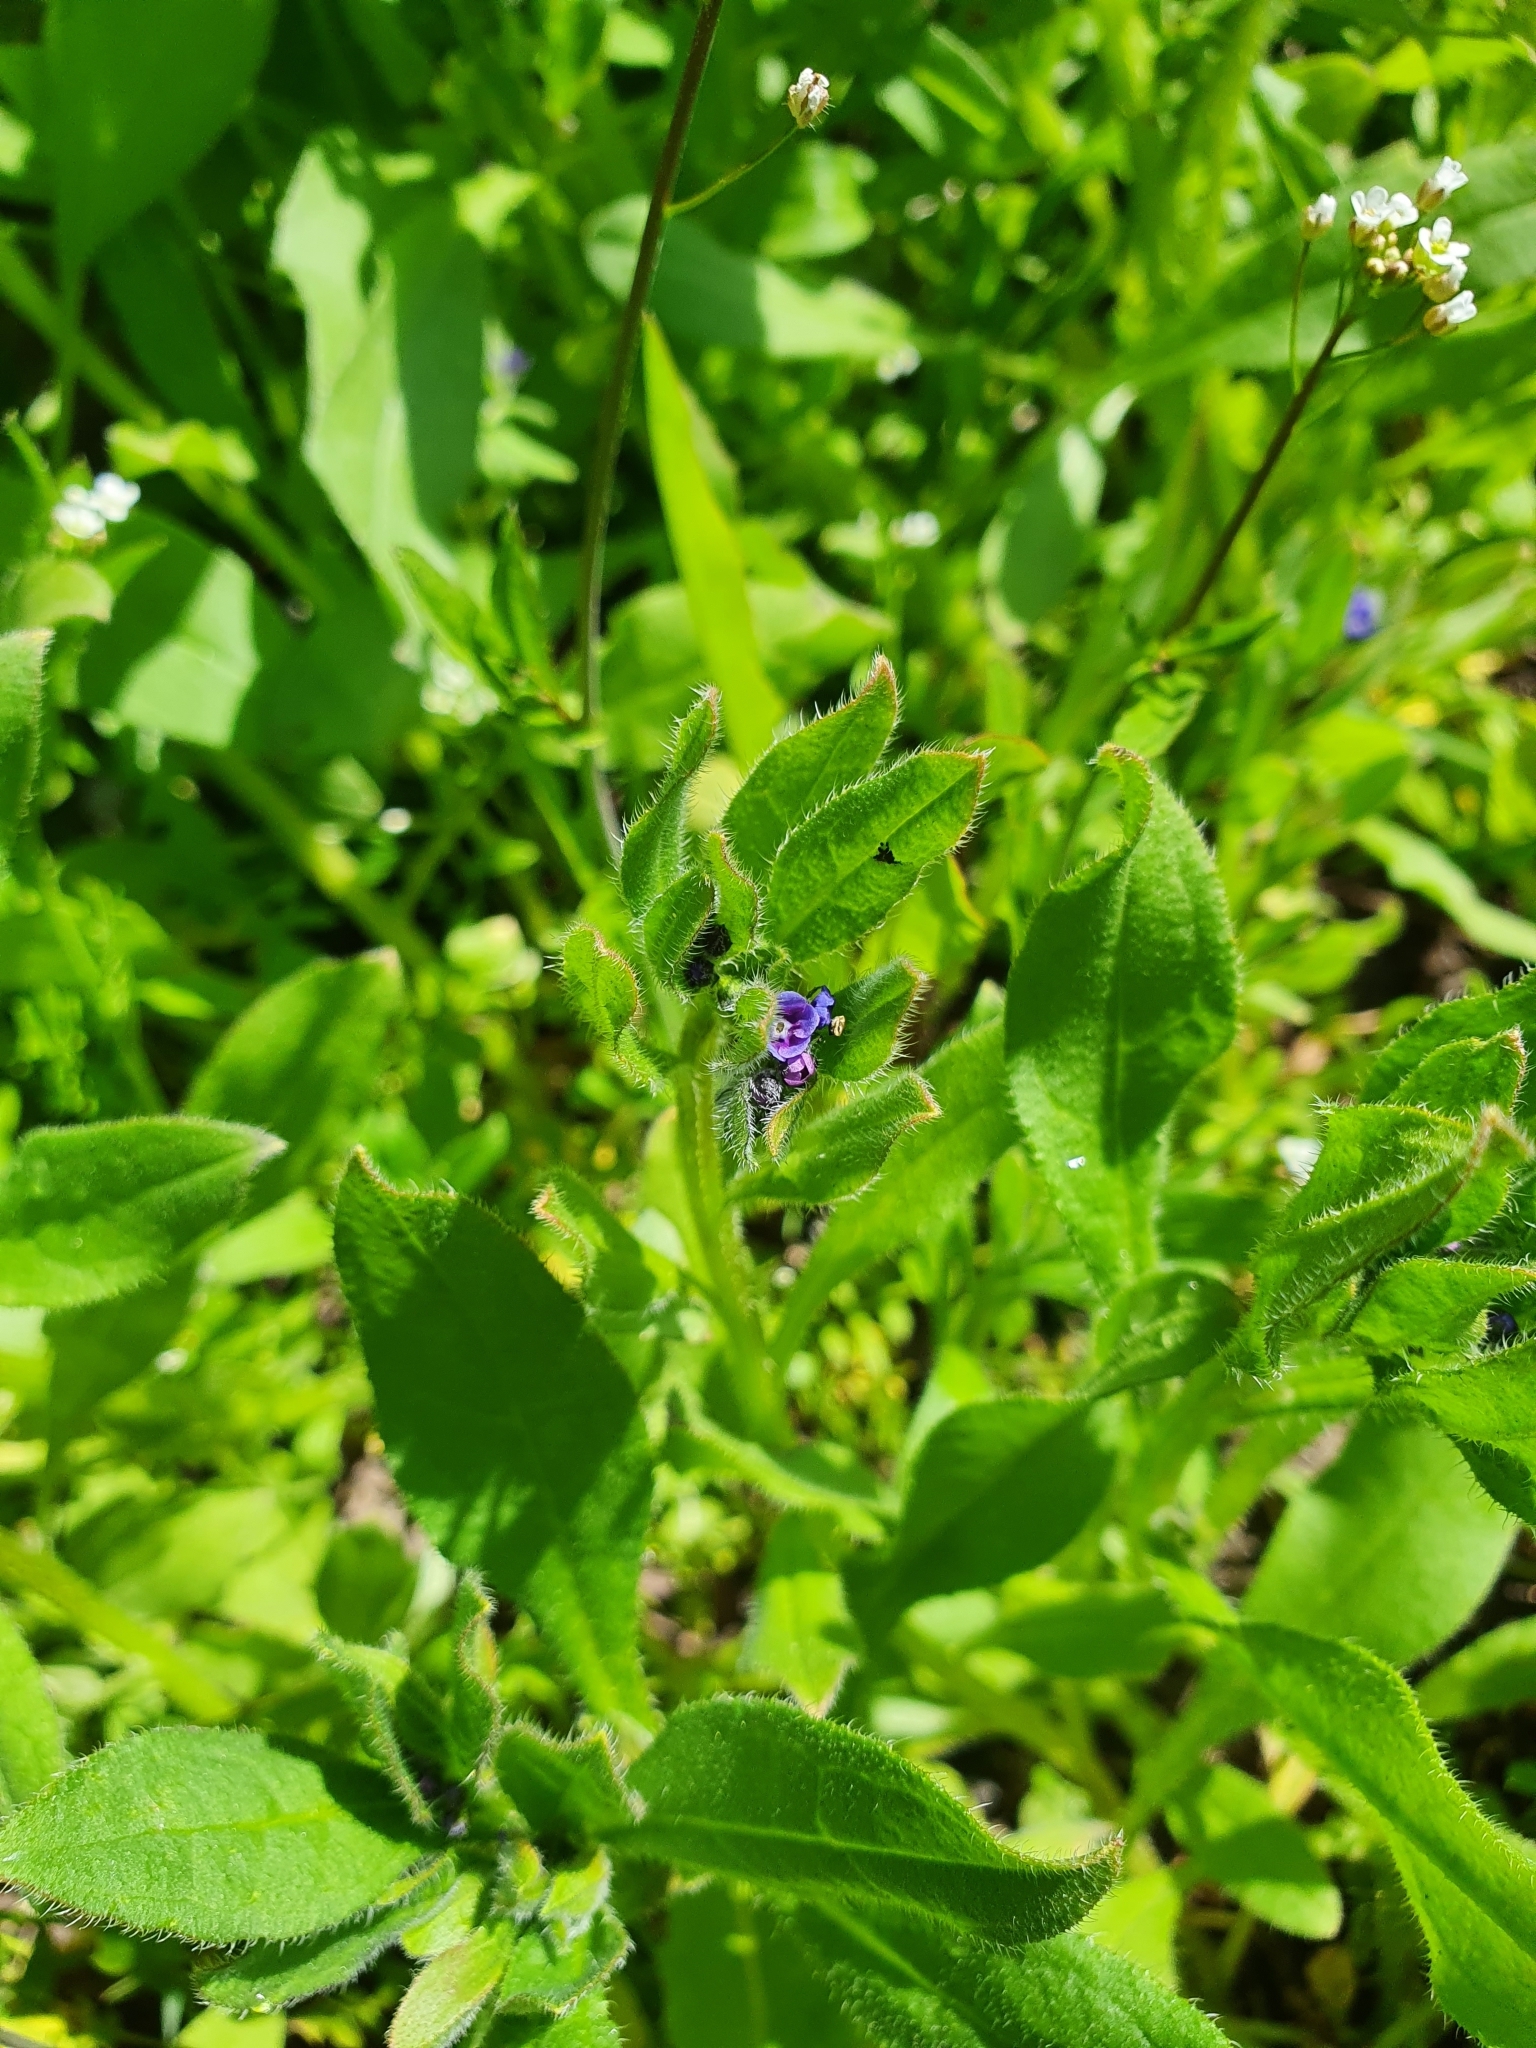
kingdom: Plantae
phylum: Tracheophyta
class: Magnoliopsida
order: Boraginales
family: Boraginaceae
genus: Asperugo
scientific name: Asperugo procumbens
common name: Madwort
